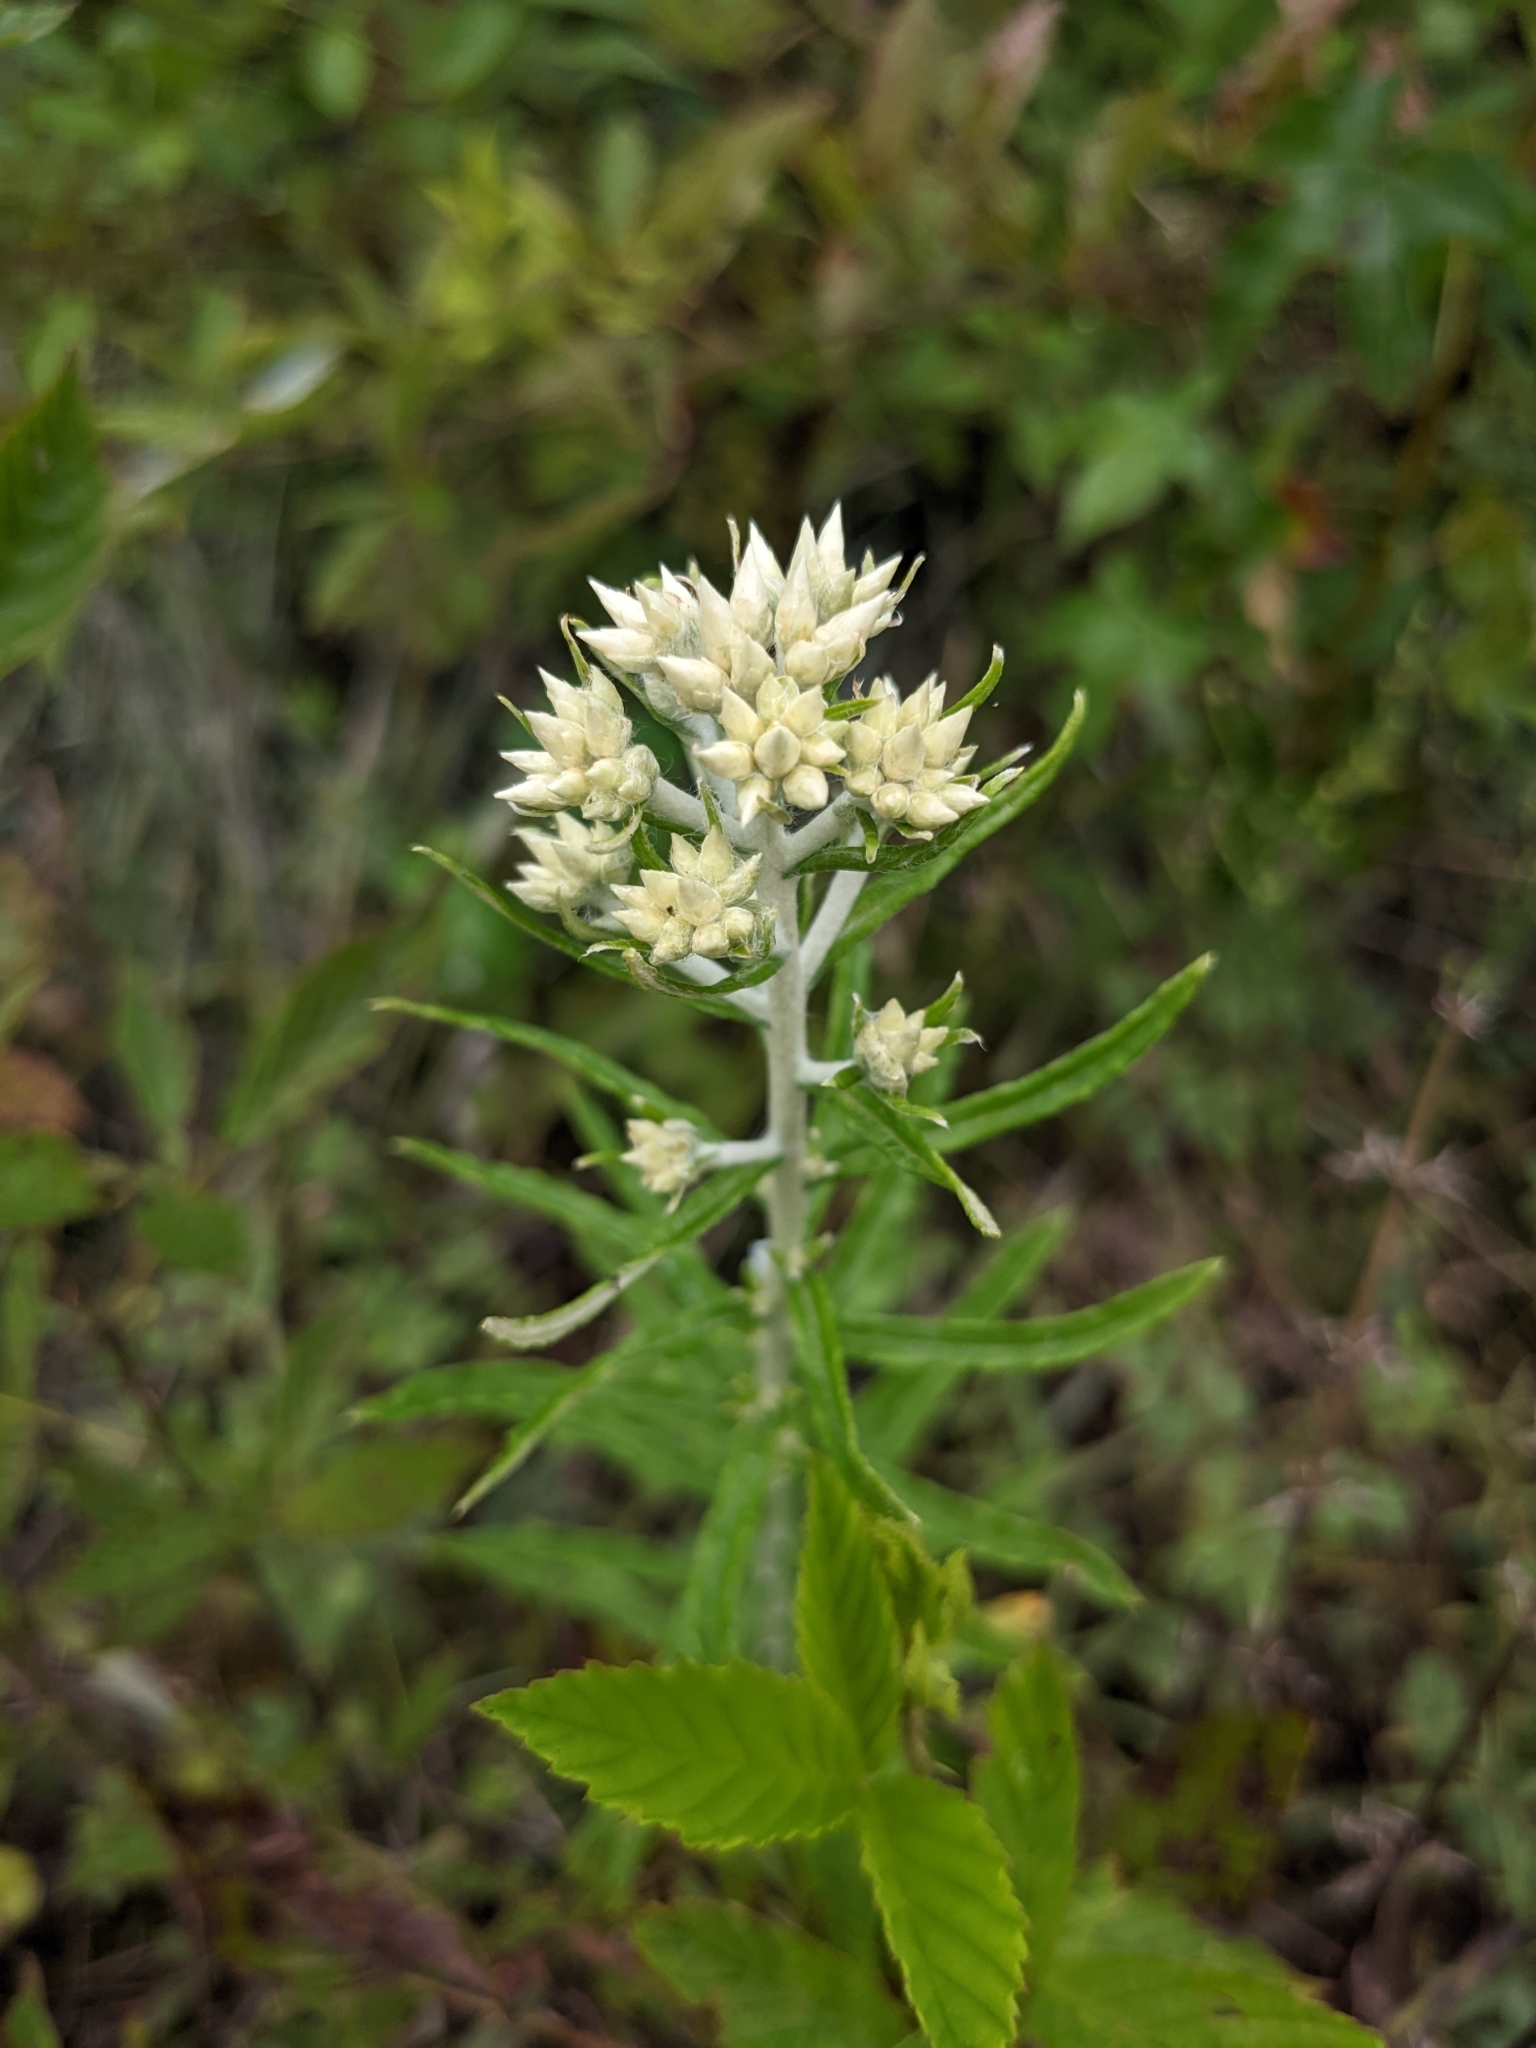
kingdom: Plantae
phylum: Tracheophyta
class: Magnoliopsida
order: Asterales
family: Asteraceae
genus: Pseudognaphalium
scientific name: Pseudognaphalium obtusifolium
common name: Eastern rabbit-tobacco
